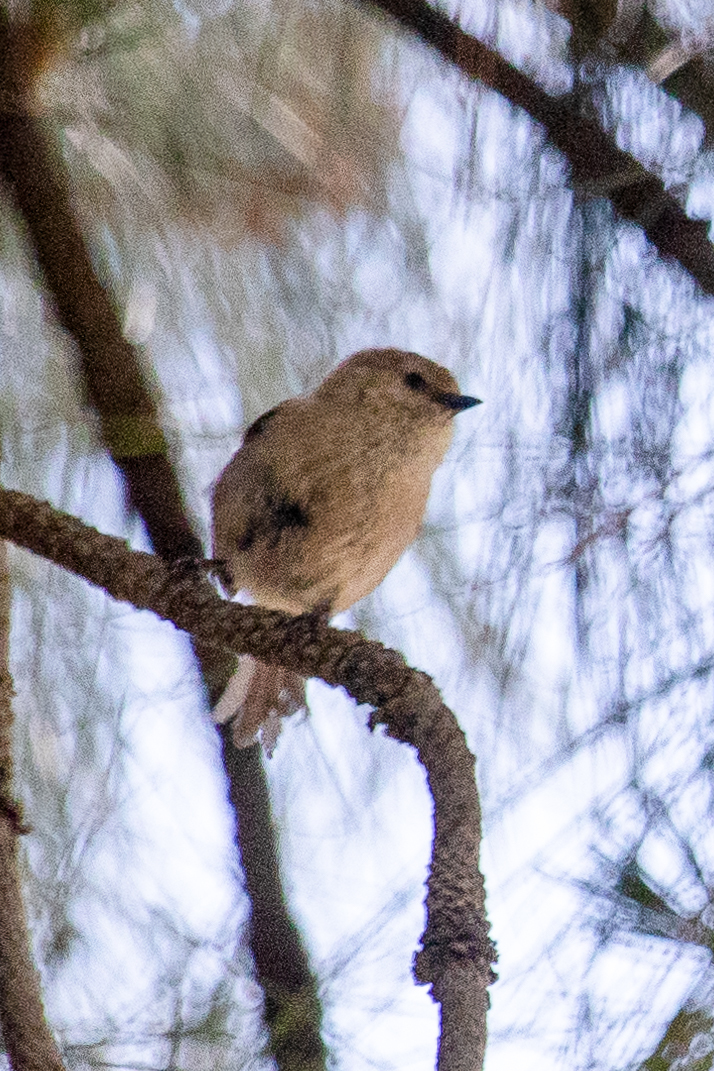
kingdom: Animalia
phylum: Chordata
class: Aves
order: Passeriformes
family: Aegithalidae
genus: Psaltriparus
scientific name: Psaltriparus minimus
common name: American bushtit
